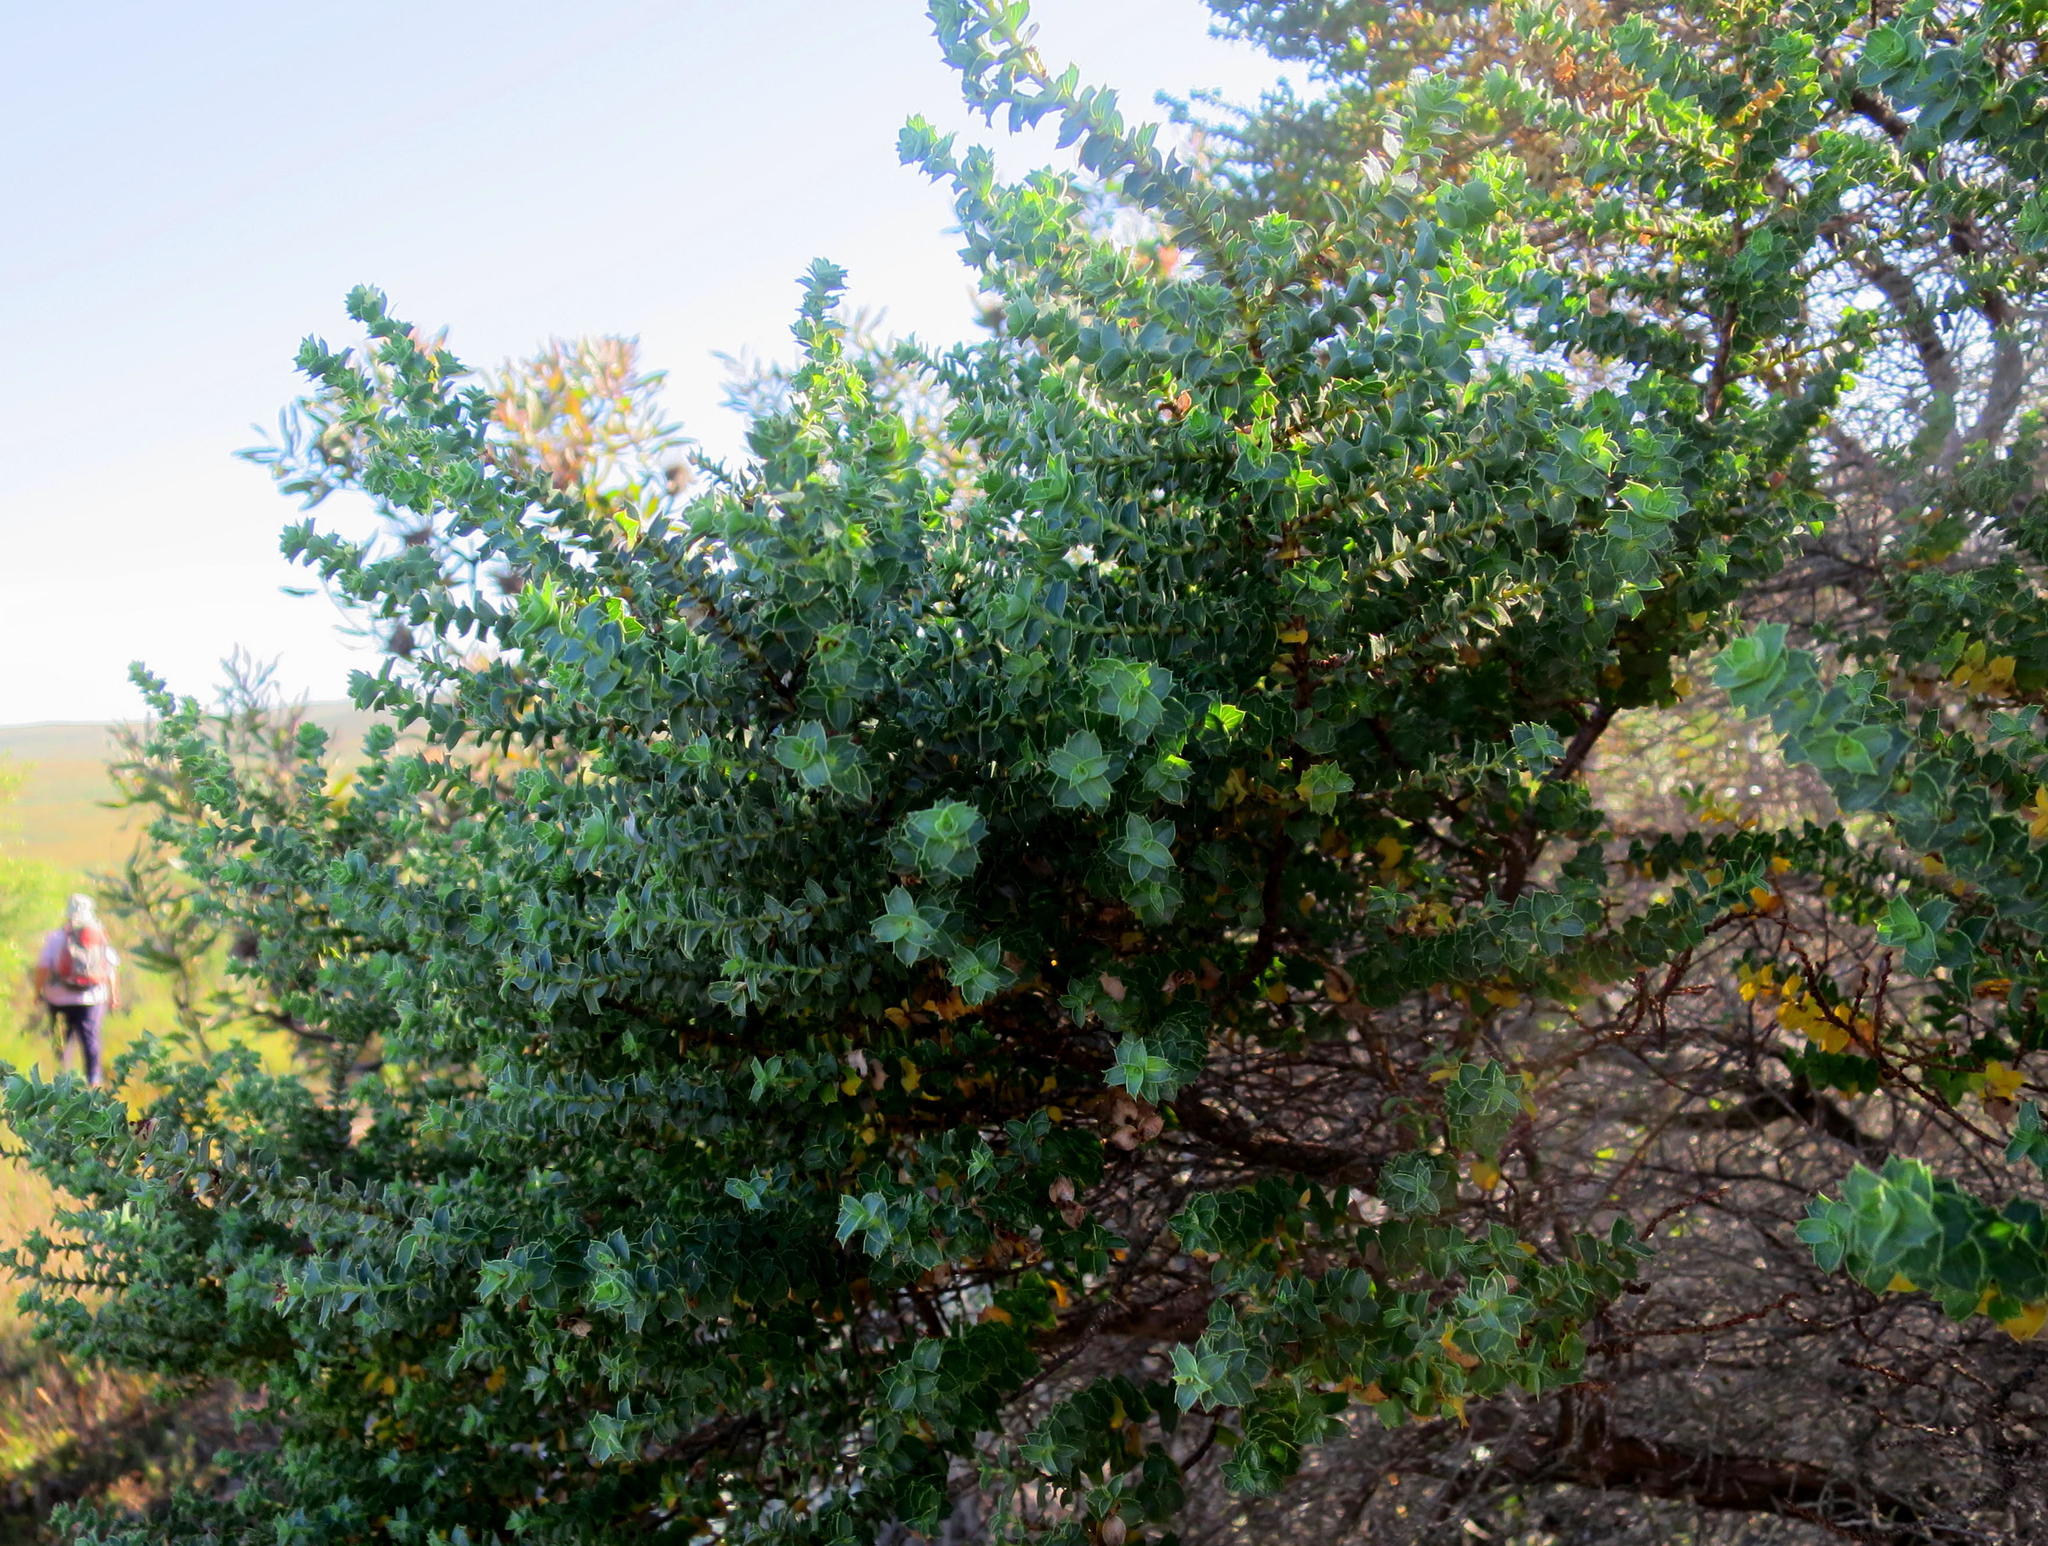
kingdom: Plantae
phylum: Tracheophyta
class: Magnoliopsida
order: Rosales
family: Rosaceae
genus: Cliffortia
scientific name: Cliffortia schlechteri
